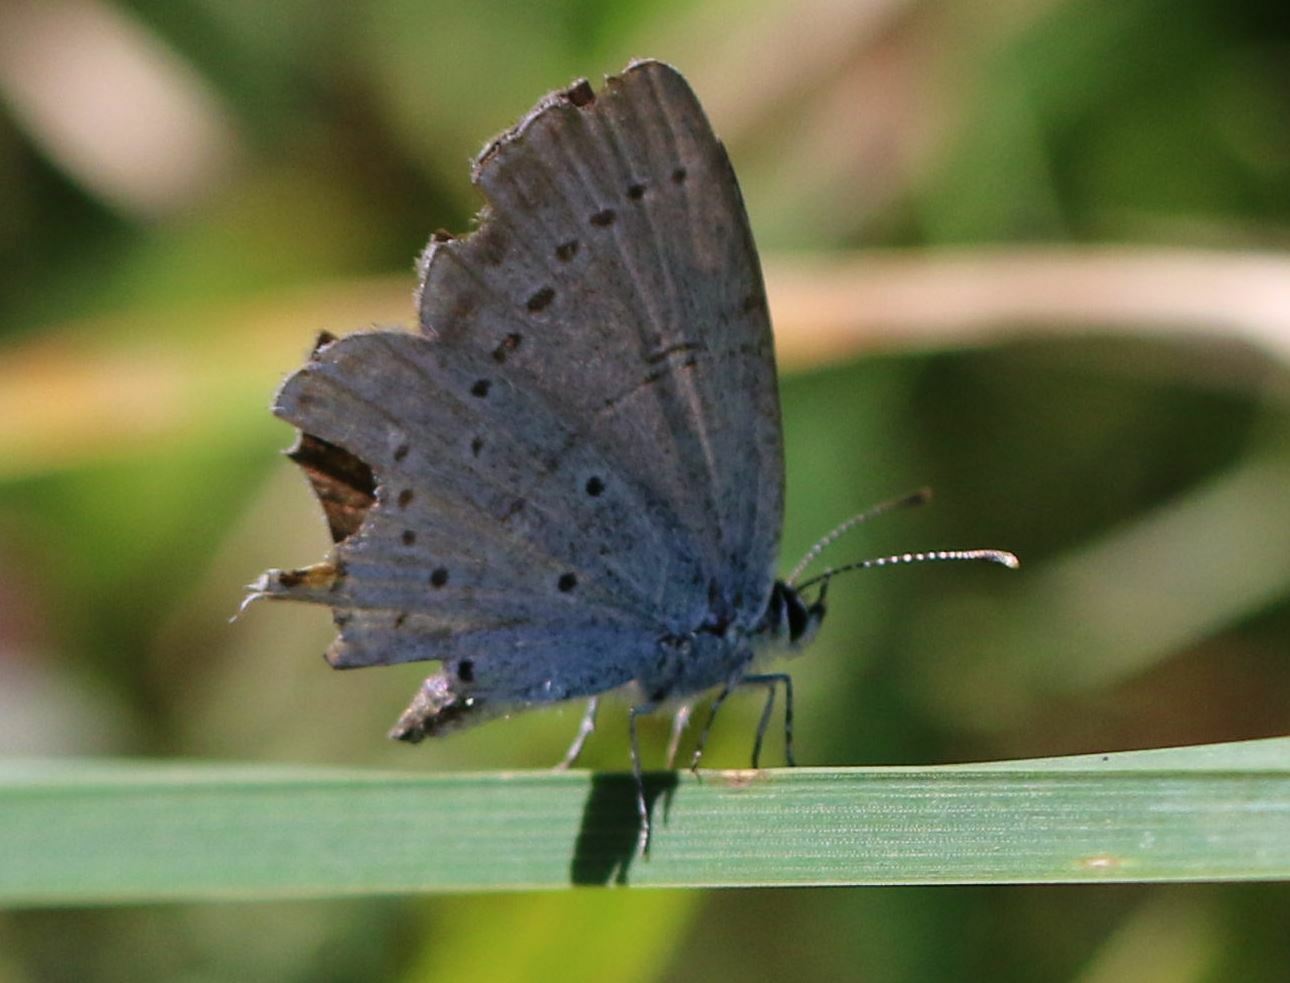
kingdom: Animalia
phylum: Arthropoda
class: Insecta
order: Lepidoptera
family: Lycaenidae
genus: Elkalyce
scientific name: Elkalyce argiades
